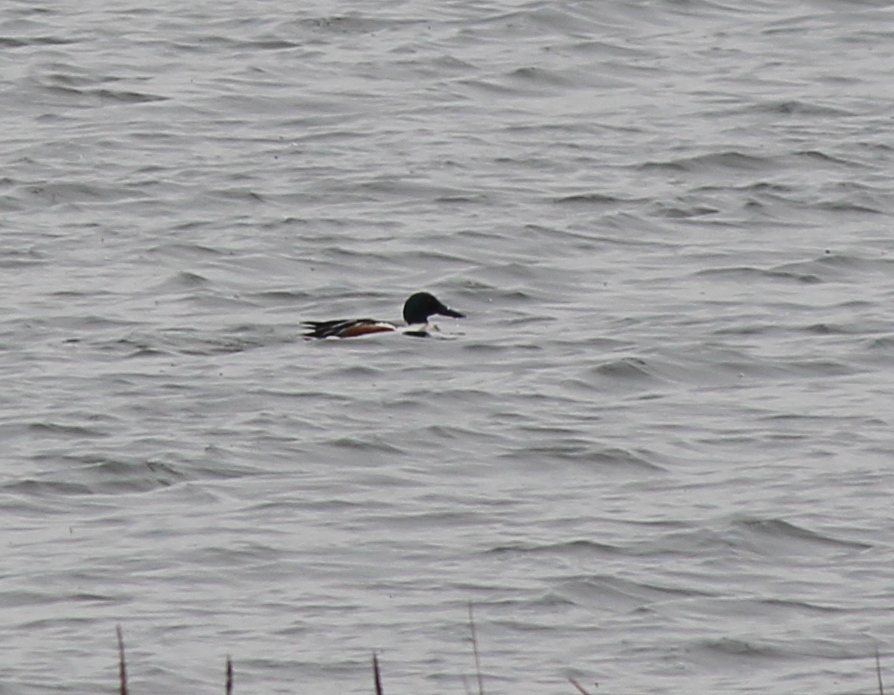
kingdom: Animalia
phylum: Chordata
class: Aves
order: Anseriformes
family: Anatidae
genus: Spatula
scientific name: Spatula clypeata
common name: Northern shoveler
